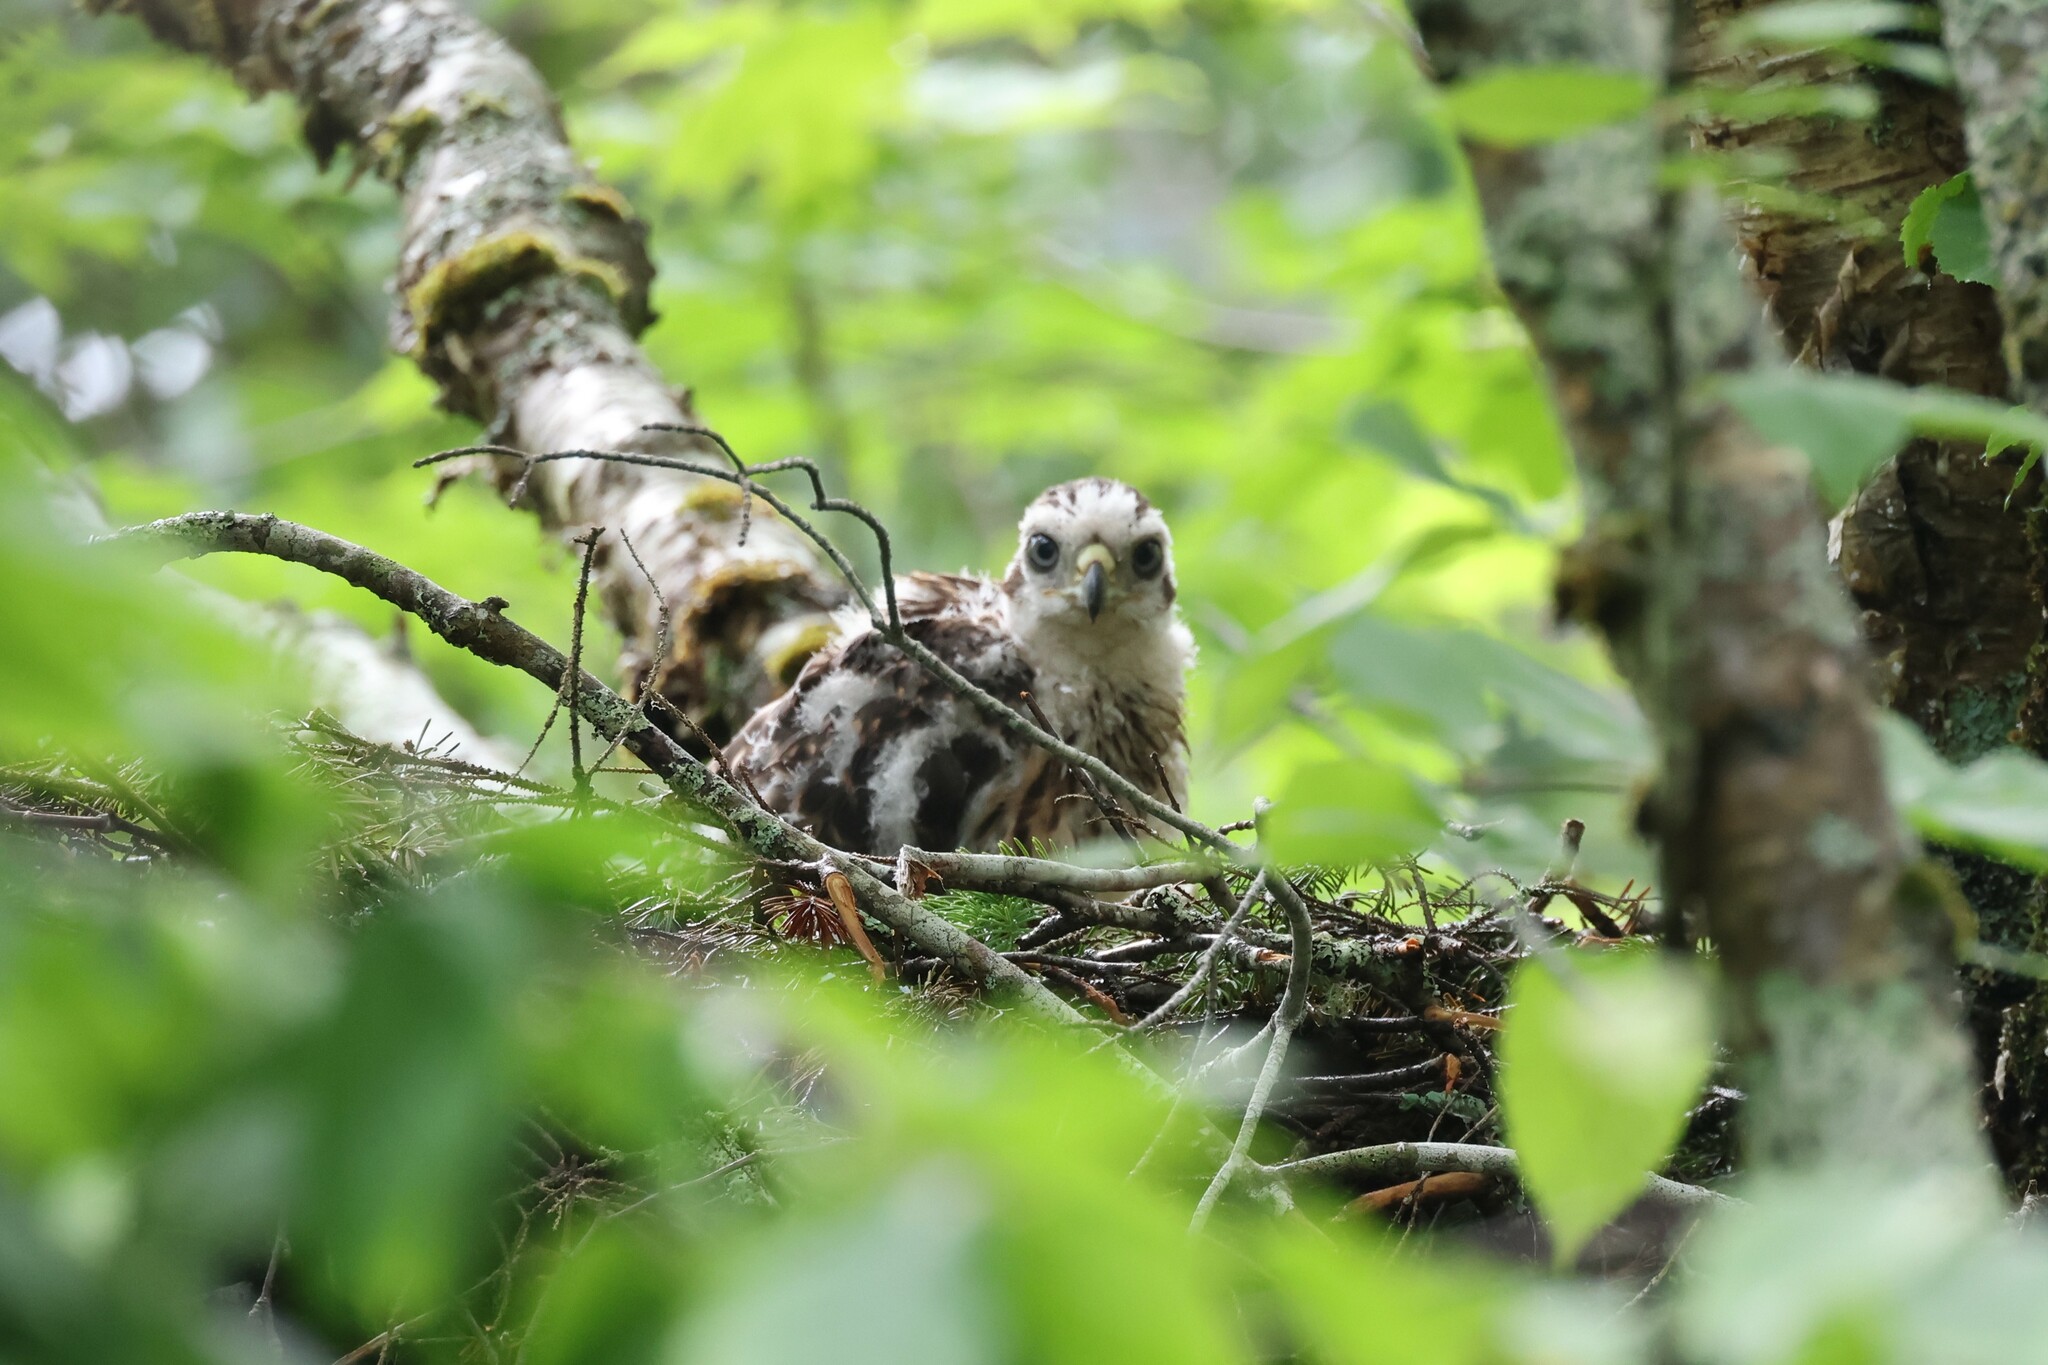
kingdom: Animalia
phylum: Chordata
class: Aves
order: Accipitriformes
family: Accipitridae
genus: Accipiter
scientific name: Accipiter gentilis
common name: Northern goshawk
